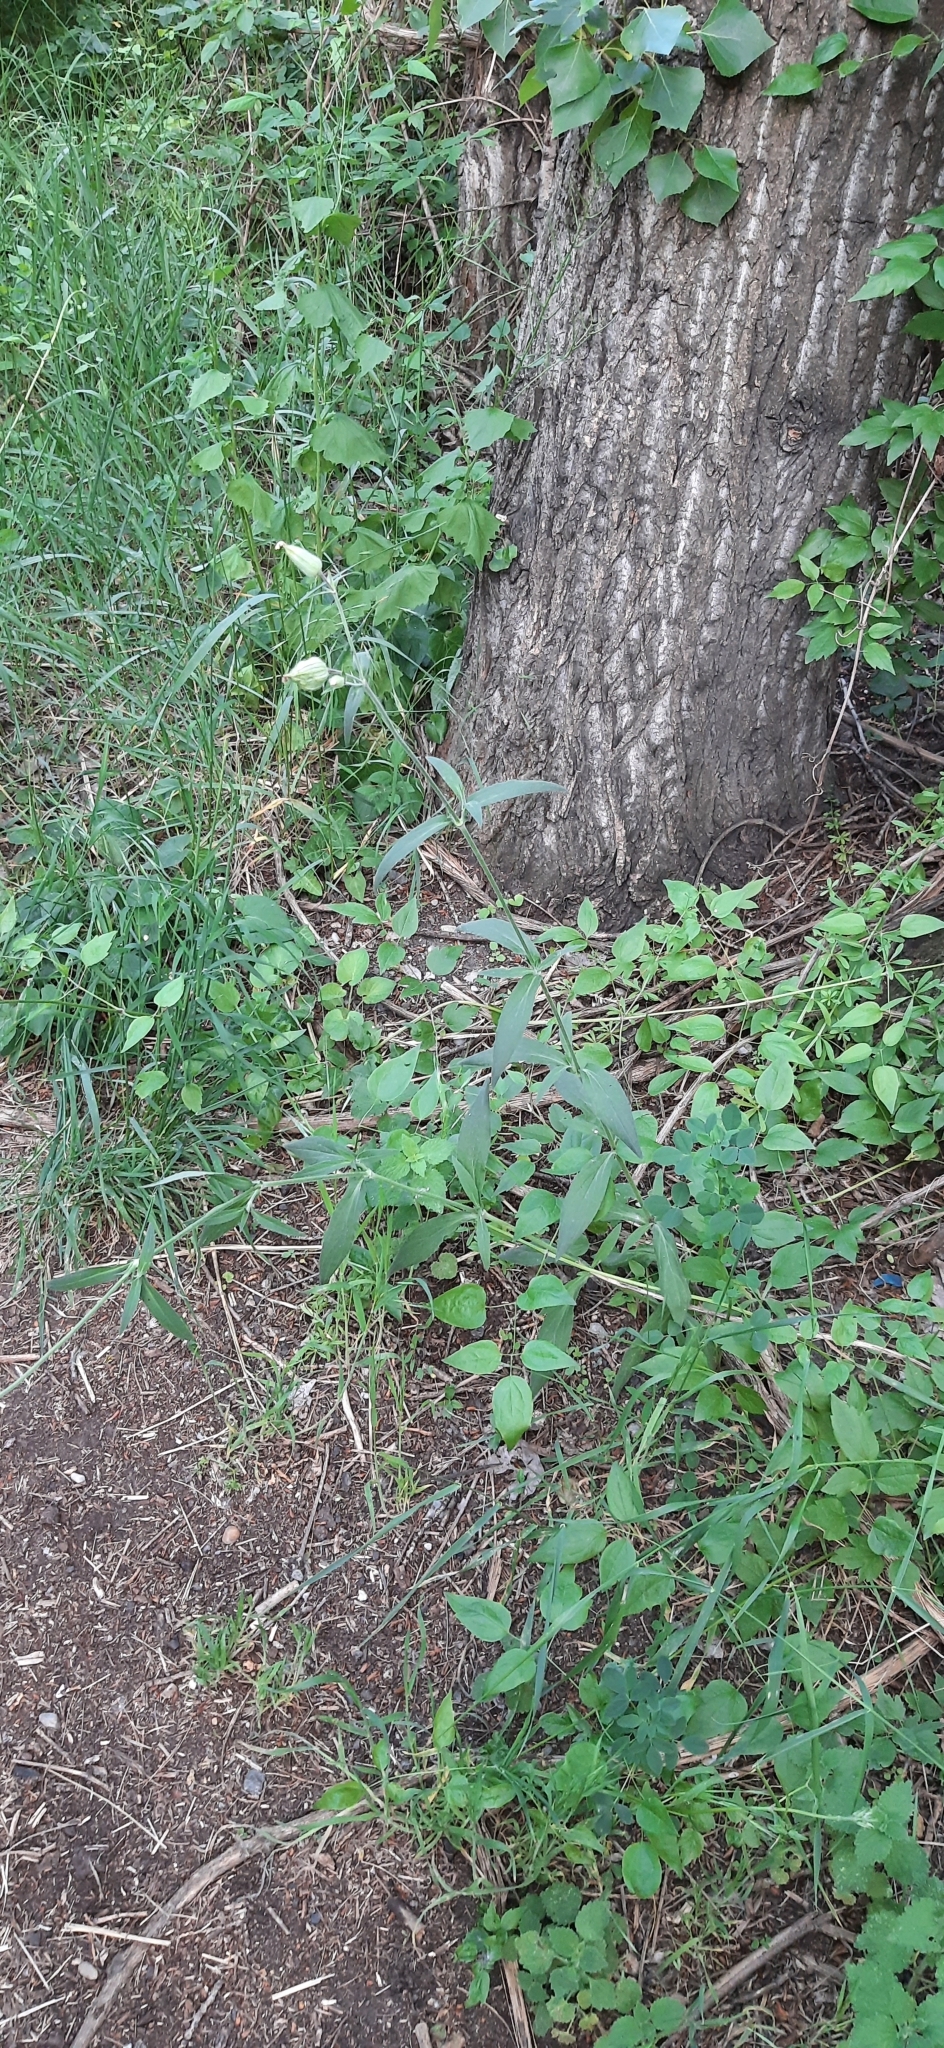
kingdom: Plantae
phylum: Tracheophyta
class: Magnoliopsida
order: Caryophyllales
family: Caryophyllaceae
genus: Silene
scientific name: Silene latifolia
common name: White campion
